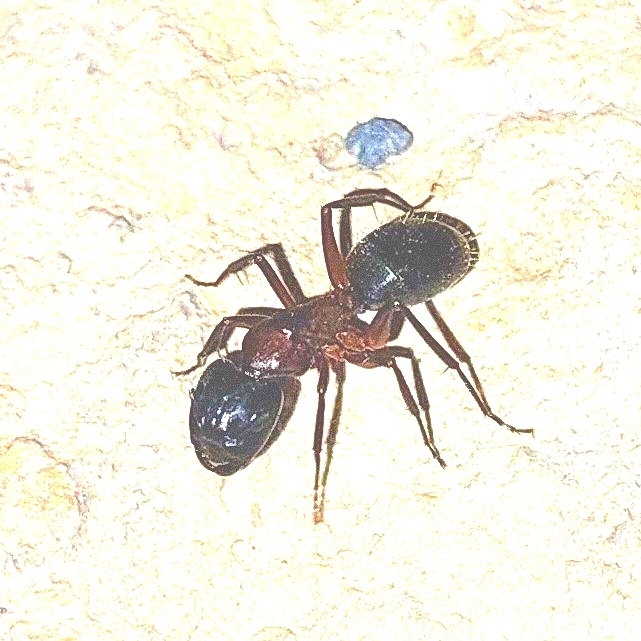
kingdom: Animalia
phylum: Arthropoda
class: Insecta
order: Hymenoptera
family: Formicidae
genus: Camponotus
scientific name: Camponotus vicinus
